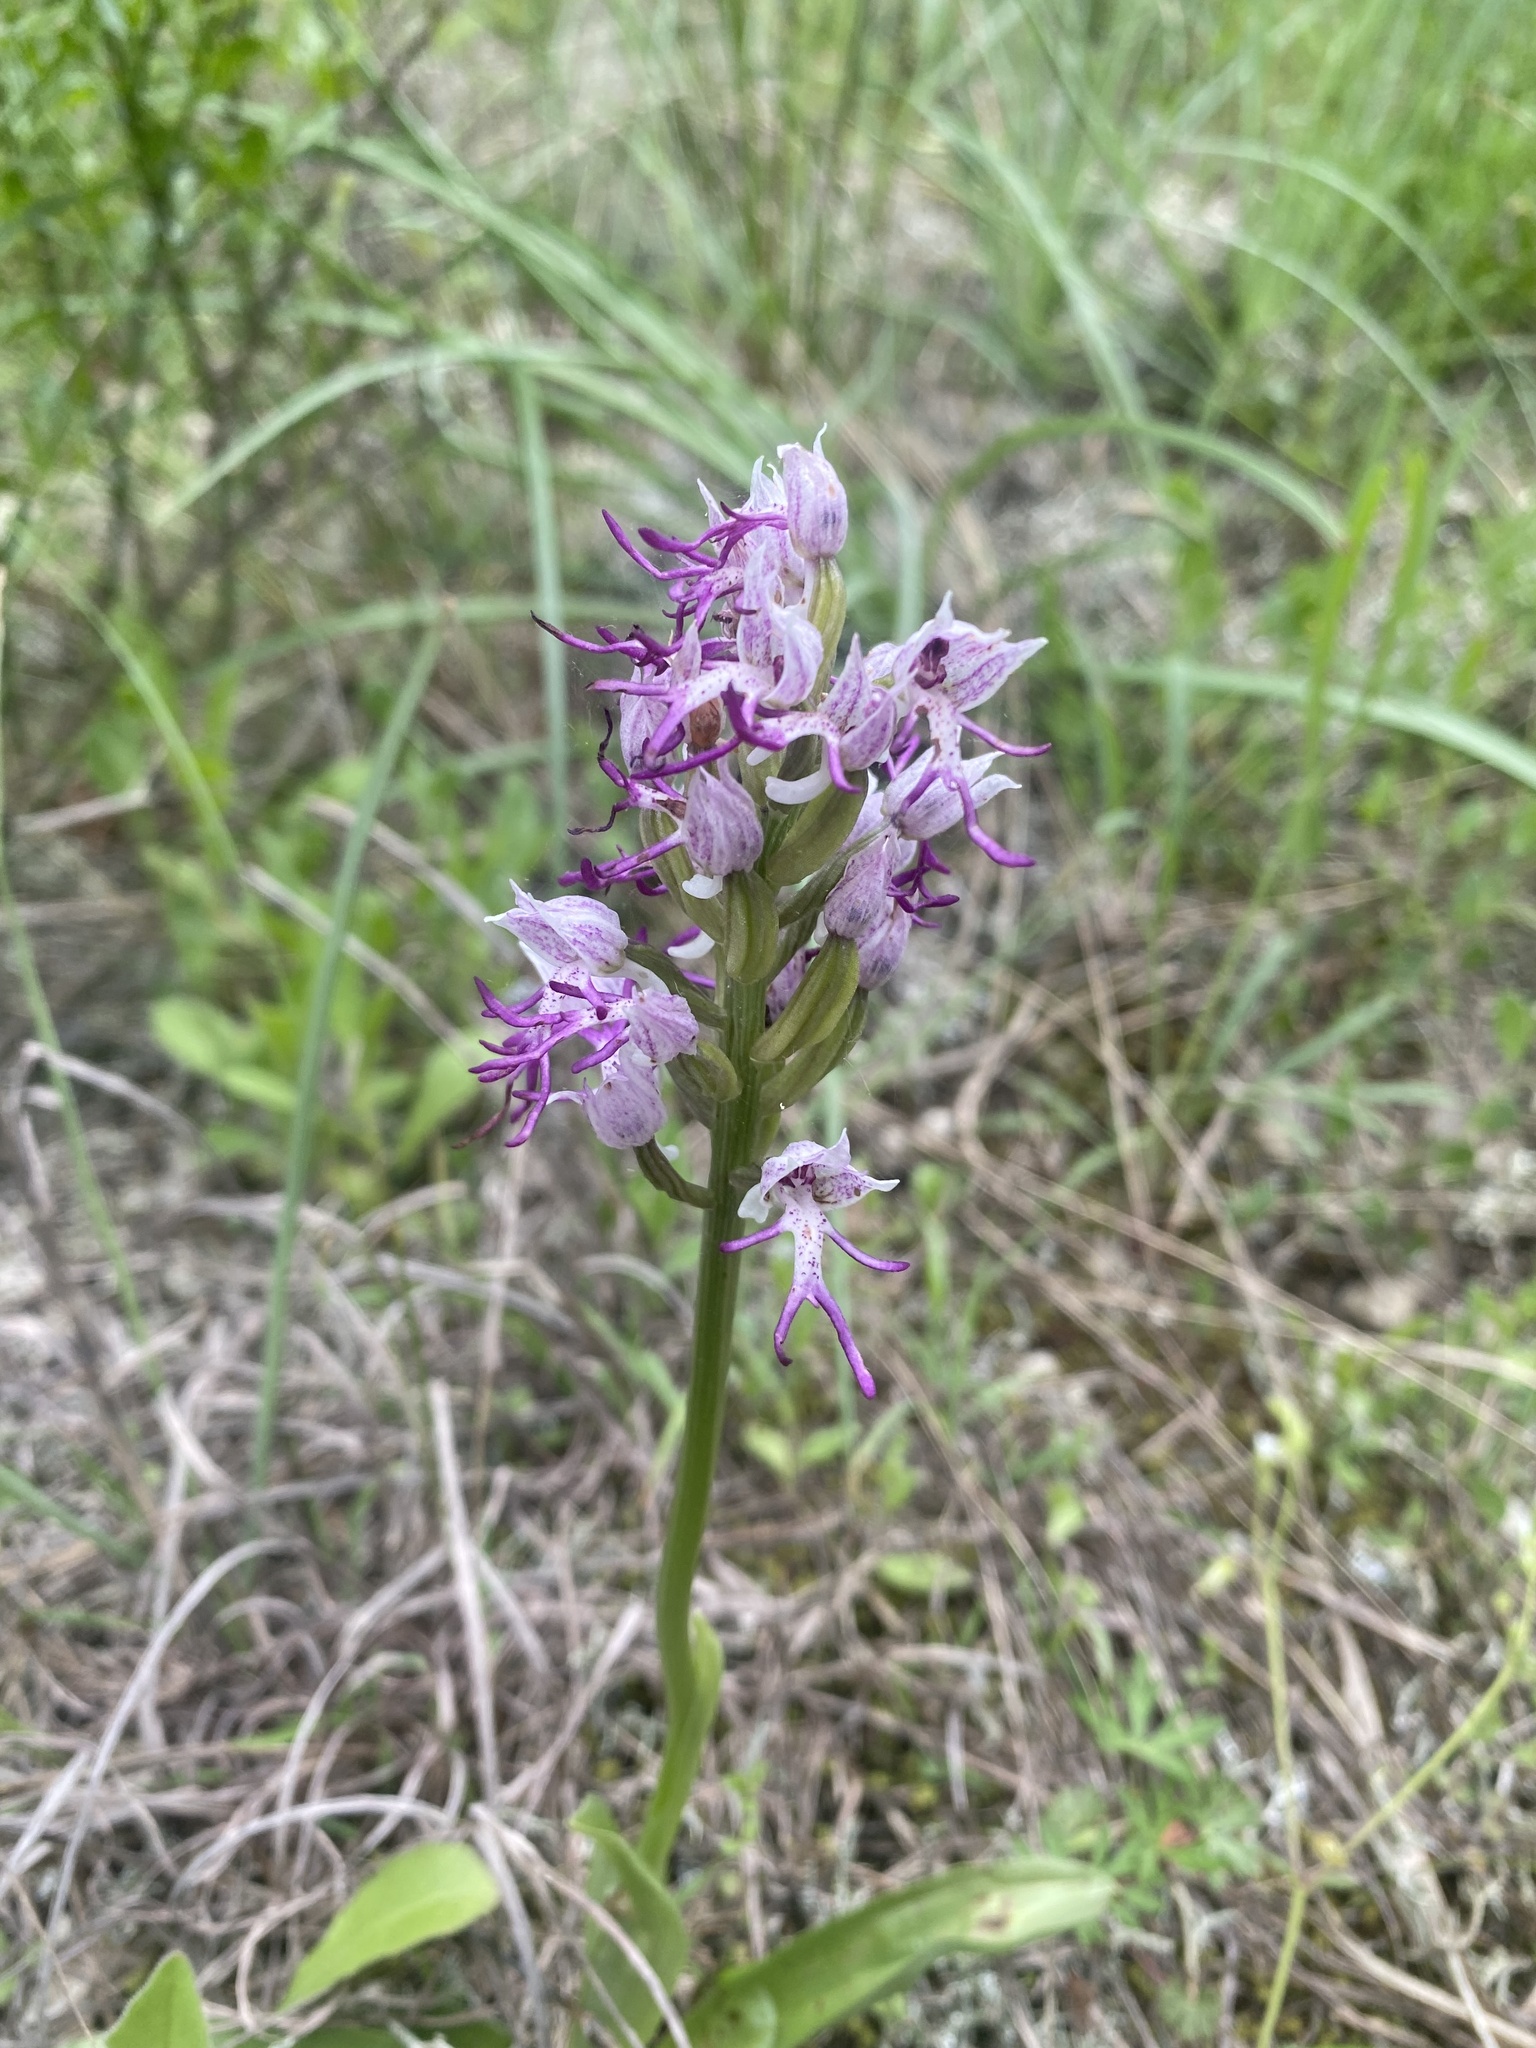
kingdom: Plantae
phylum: Tracheophyta
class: Liliopsida
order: Asparagales
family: Orchidaceae
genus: Orchis
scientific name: Orchis simia
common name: Monkey orchid
